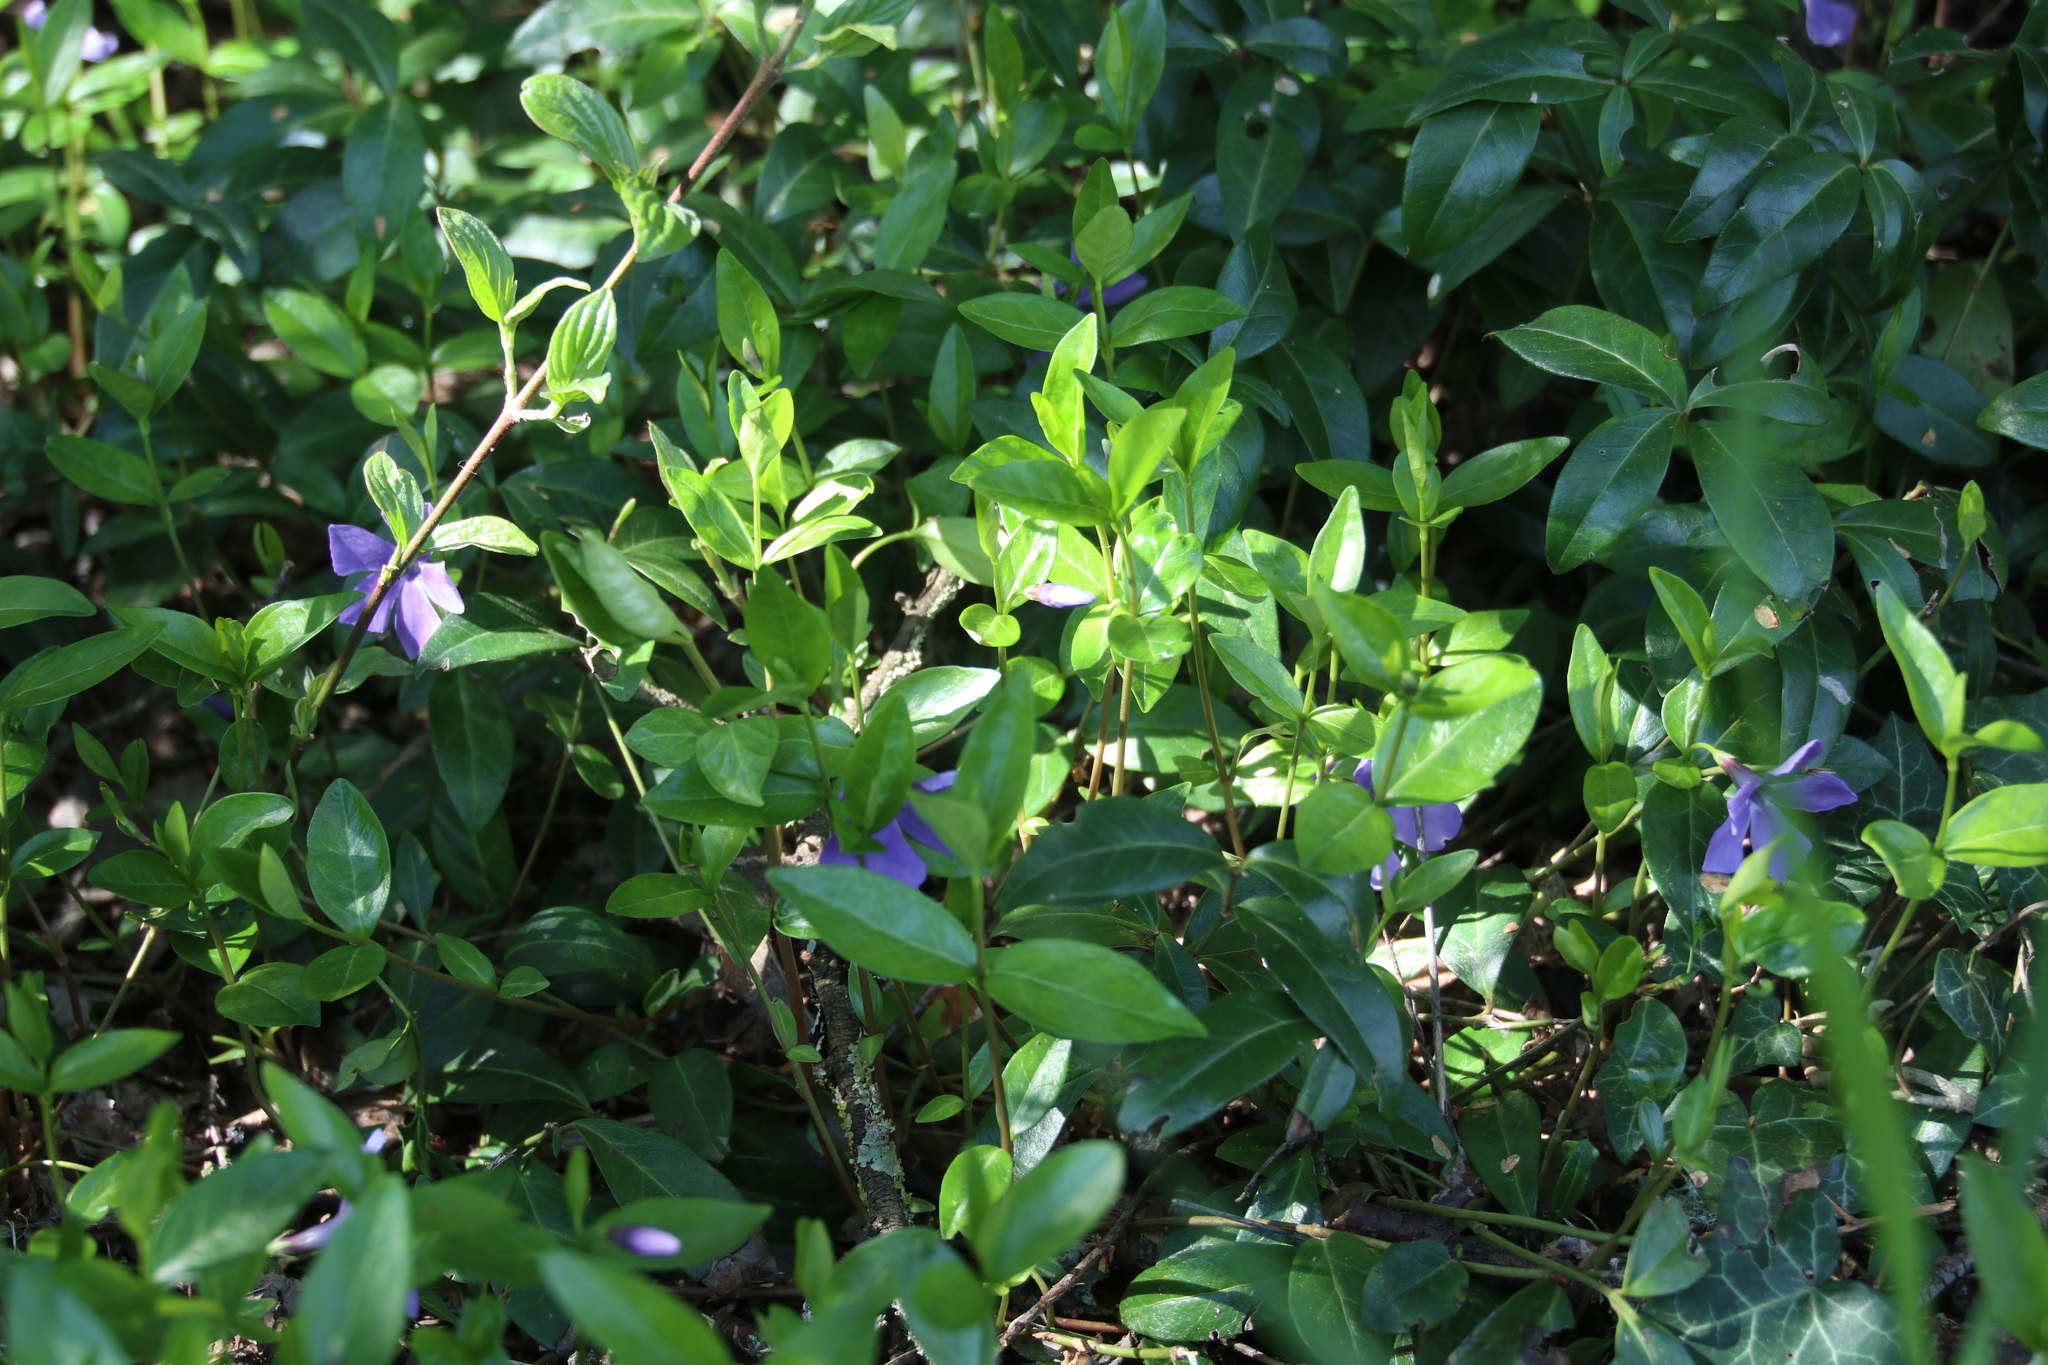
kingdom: Plantae
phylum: Tracheophyta
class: Magnoliopsida
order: Gentianales
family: Apocynaceae
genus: Vinca
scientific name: Vinca minor
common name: Lesser periwinkle
